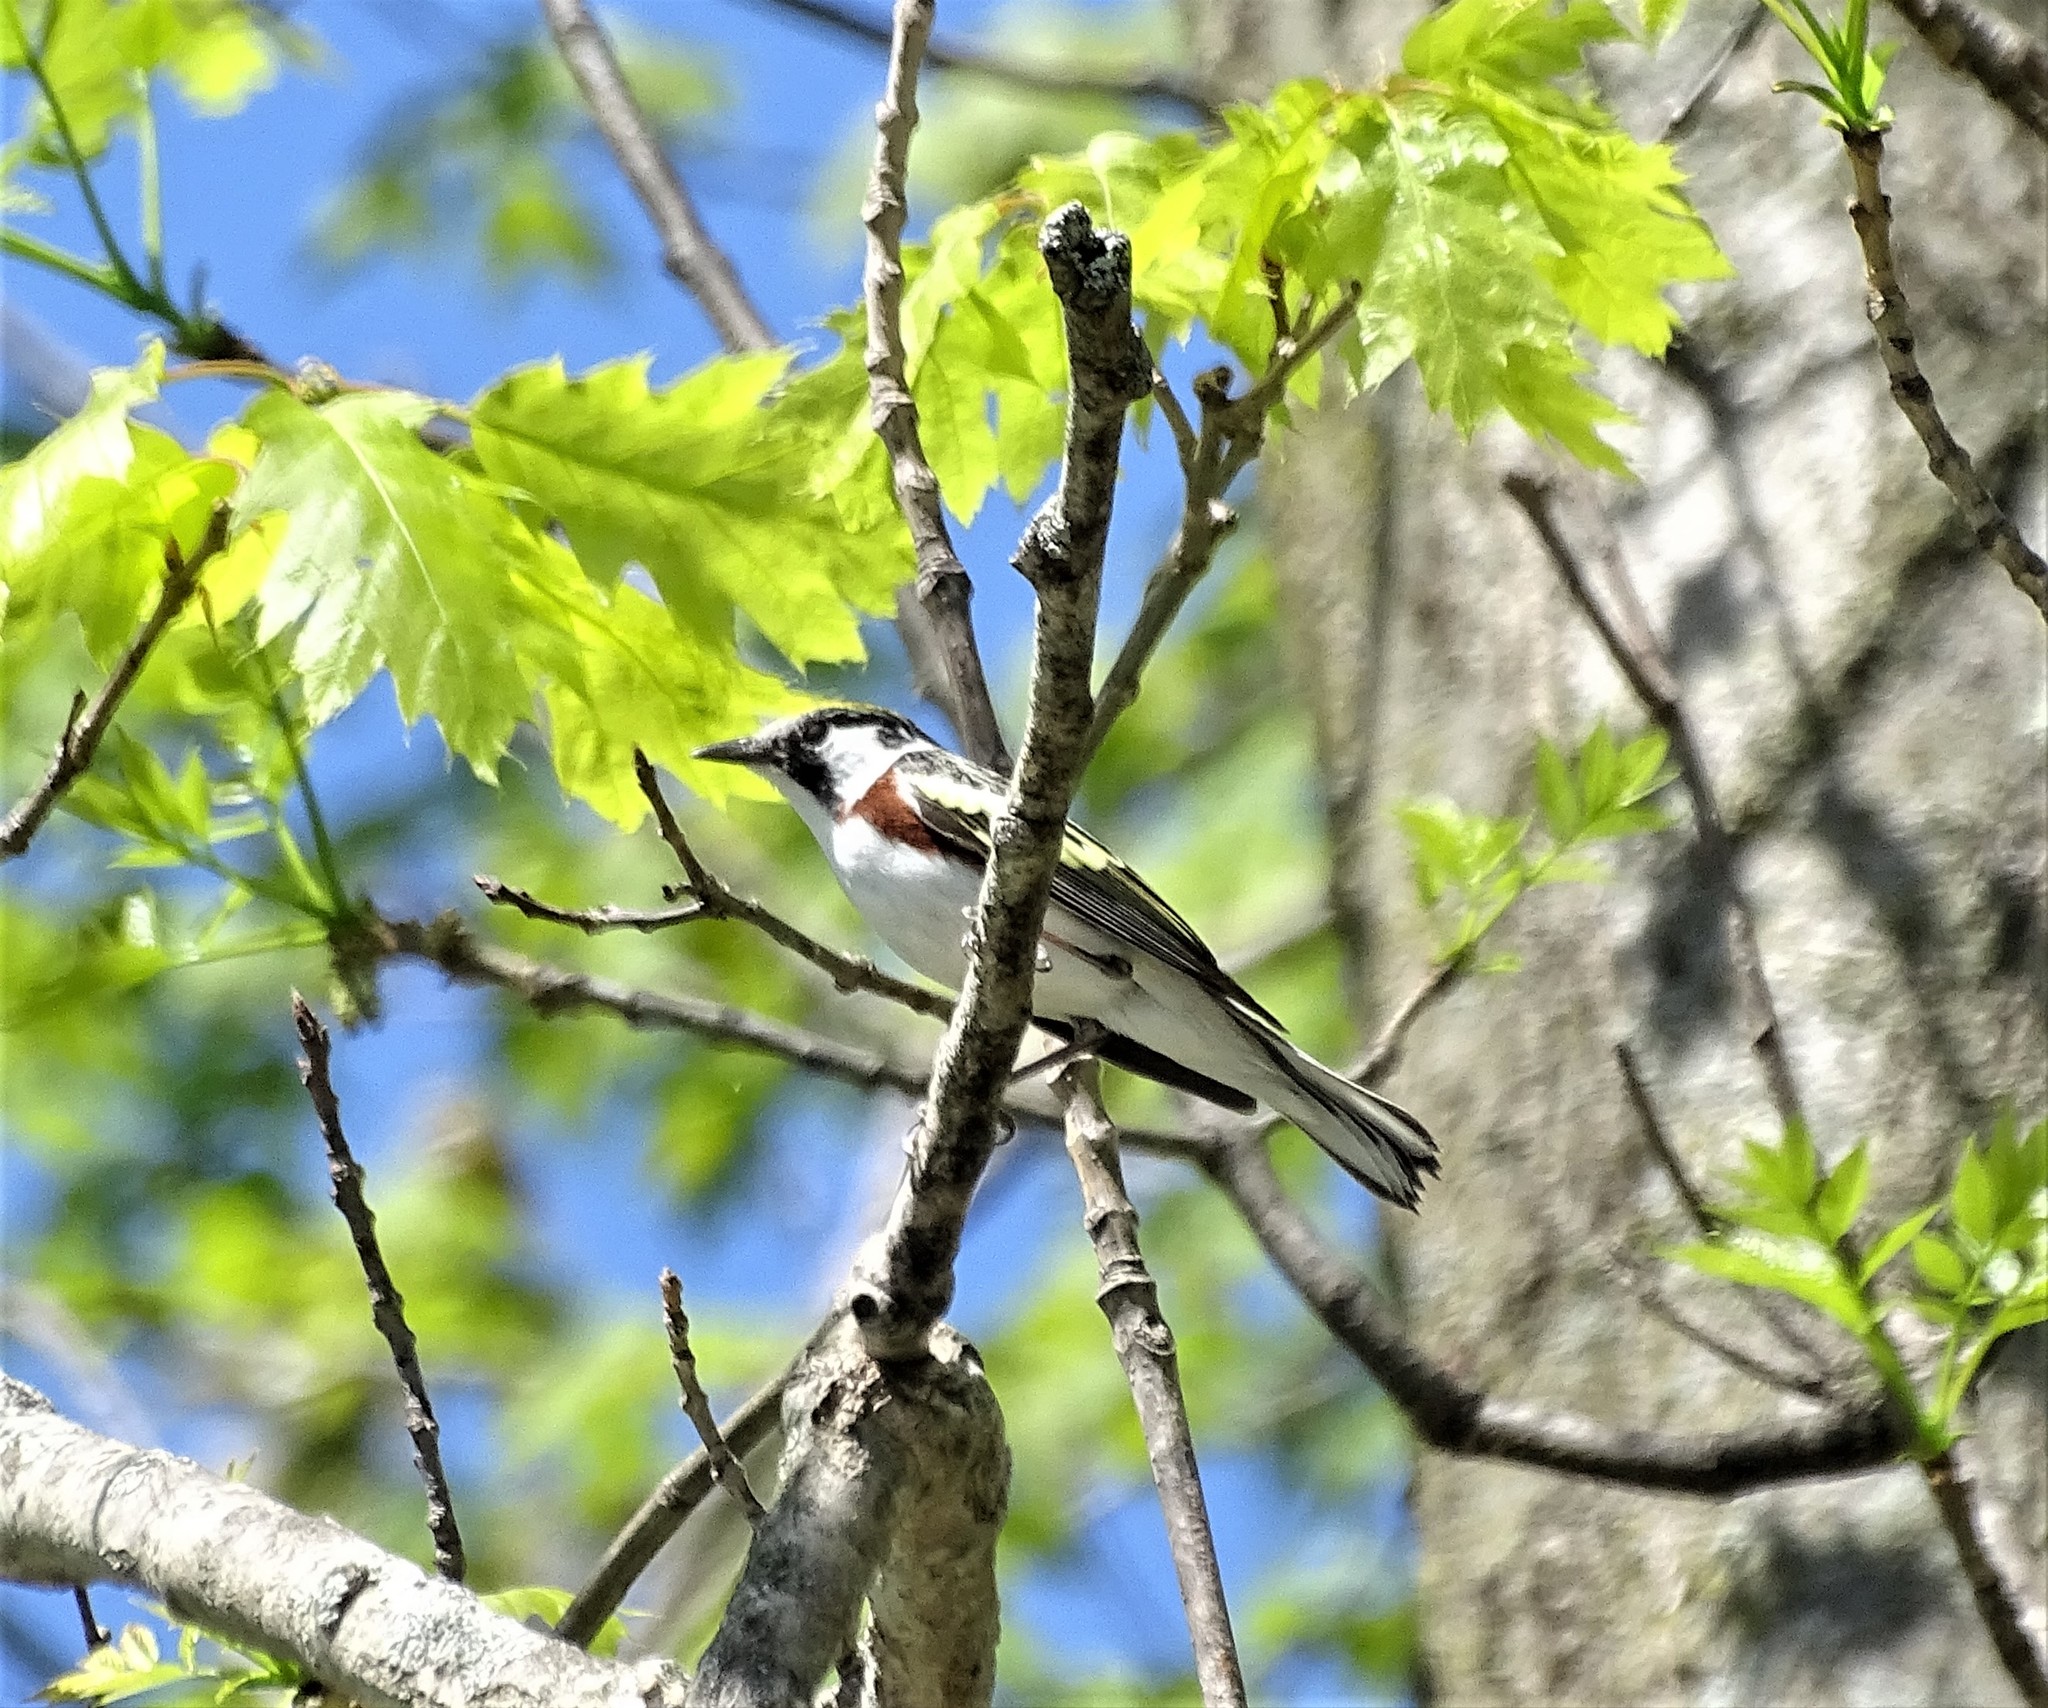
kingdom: Animalia
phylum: Chordata
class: Aves
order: Passeriformes
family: Parulidae
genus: Setophaga
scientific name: Setophaga pensylvanica
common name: Chestnut-sided warbler
